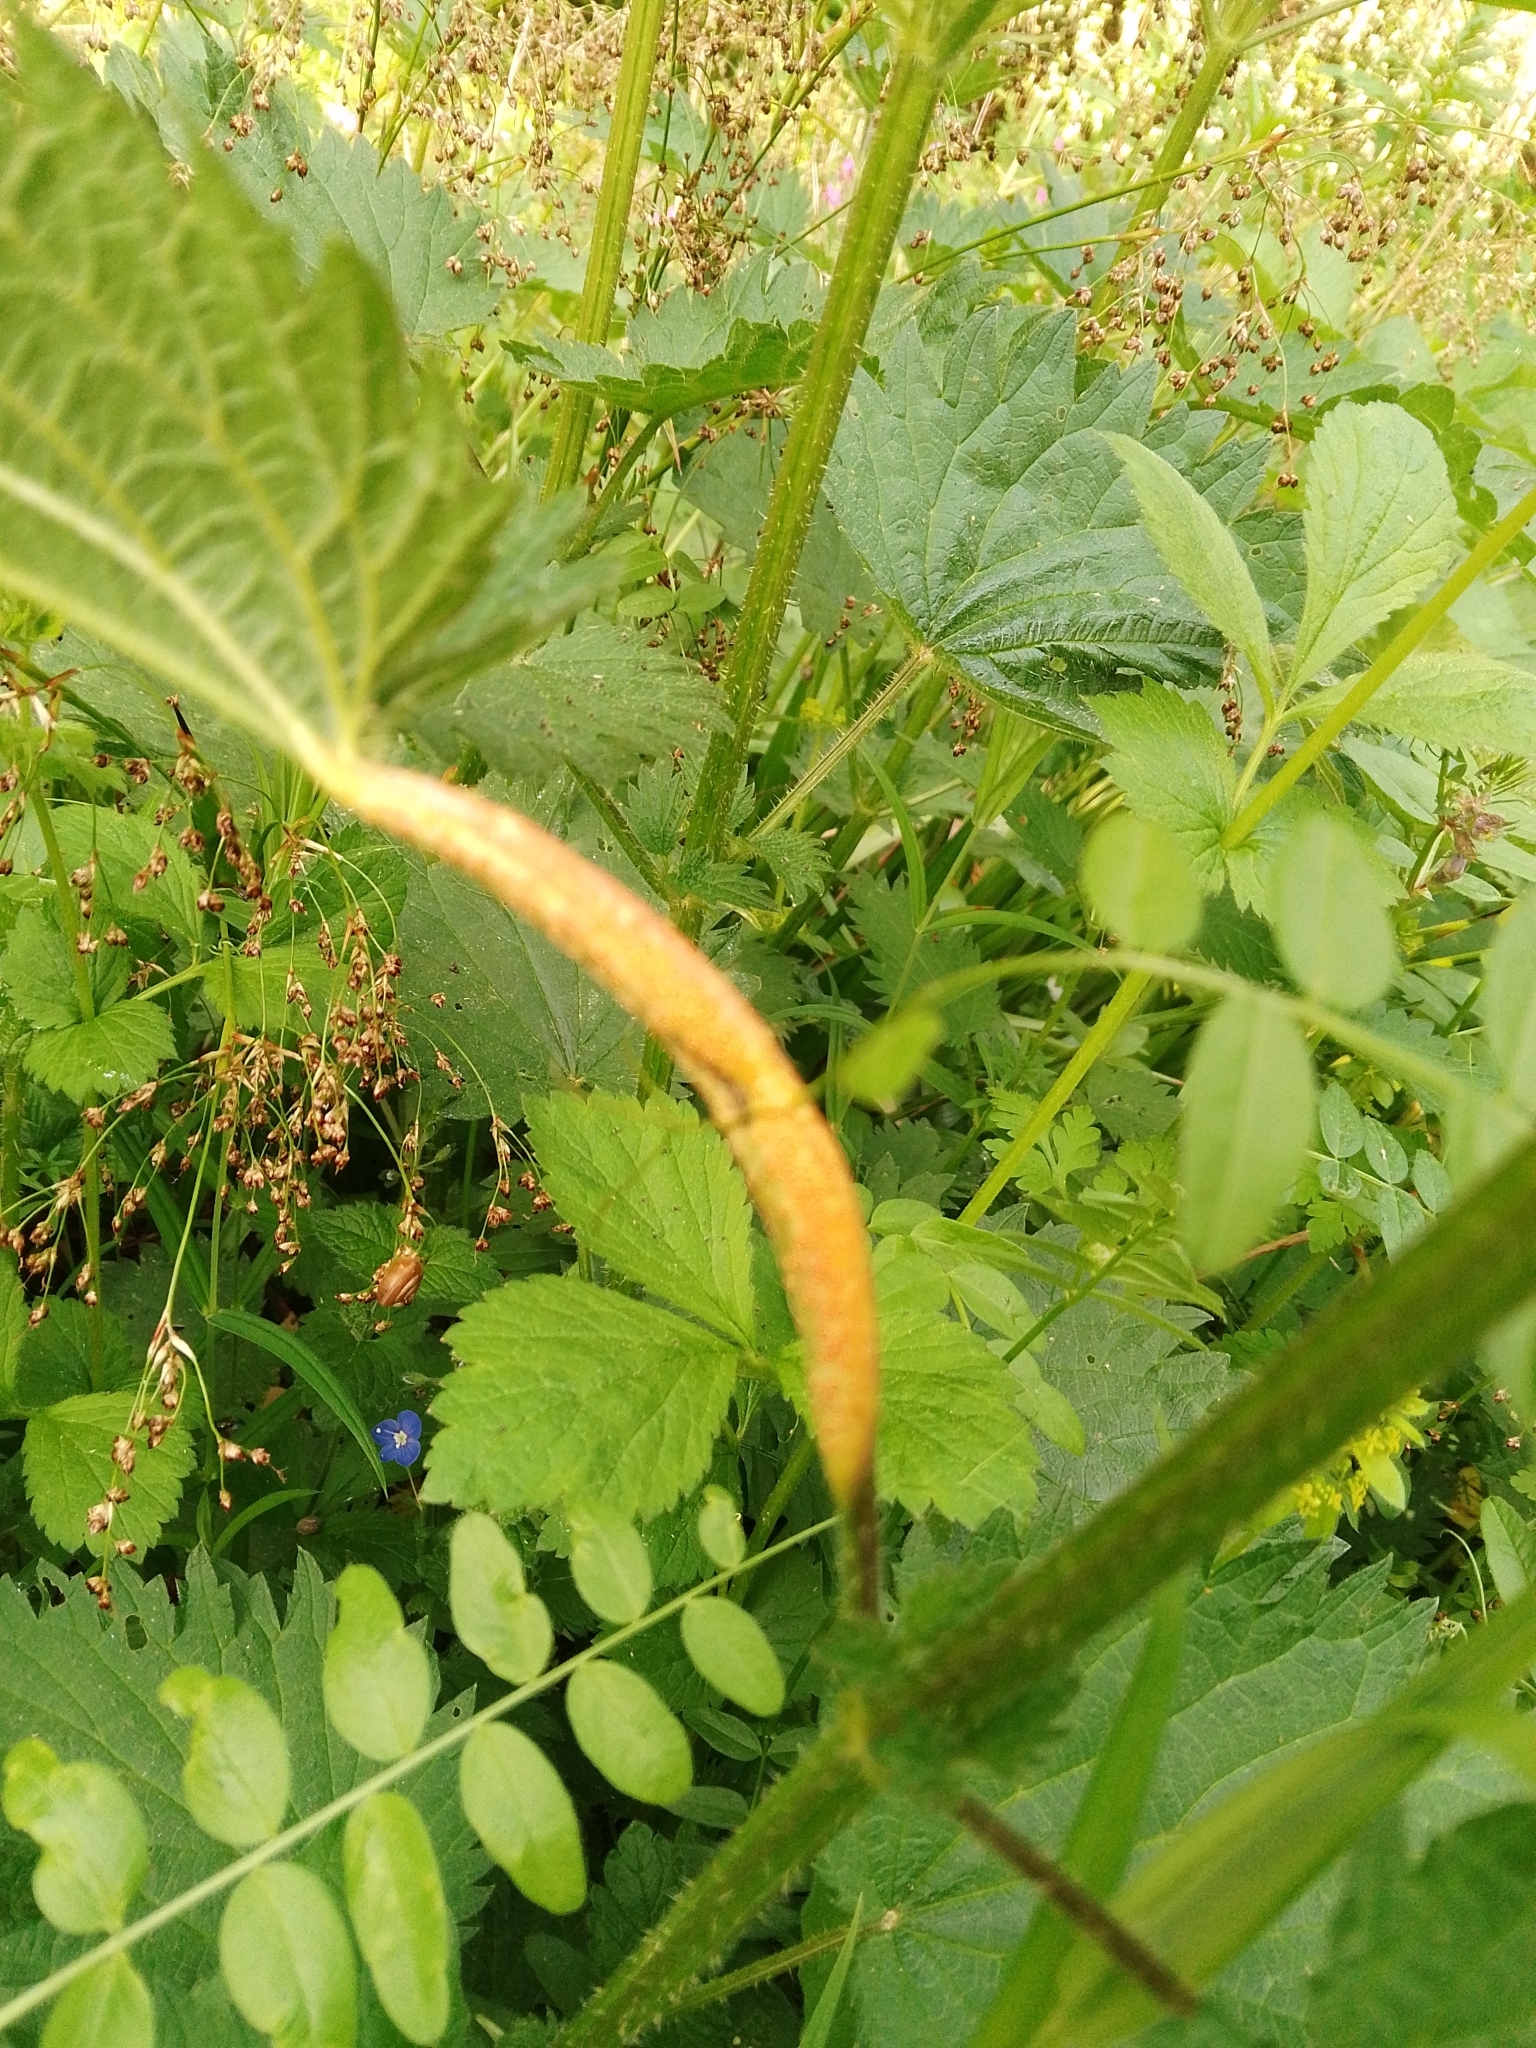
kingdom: Fungi
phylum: Basidiomycota
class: Pucciniomycetes
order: Pucciniales
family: Pucciniaceae
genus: Puccinia
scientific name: Puccinia urticata
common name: Nettle clustercup rust fungus
